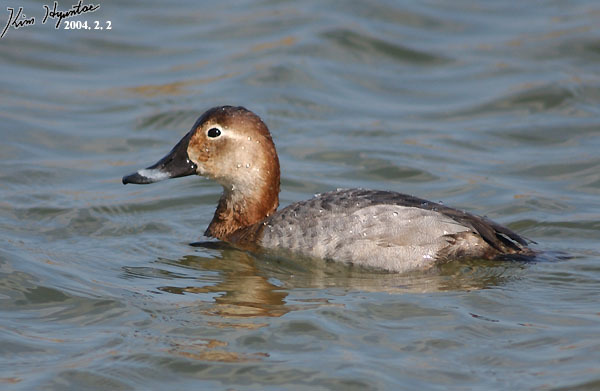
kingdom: Animalia
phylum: Chordata
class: Aves
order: Anseriformes
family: Anatidae
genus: Aythya
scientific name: Aythya ferina
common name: Common pochard
